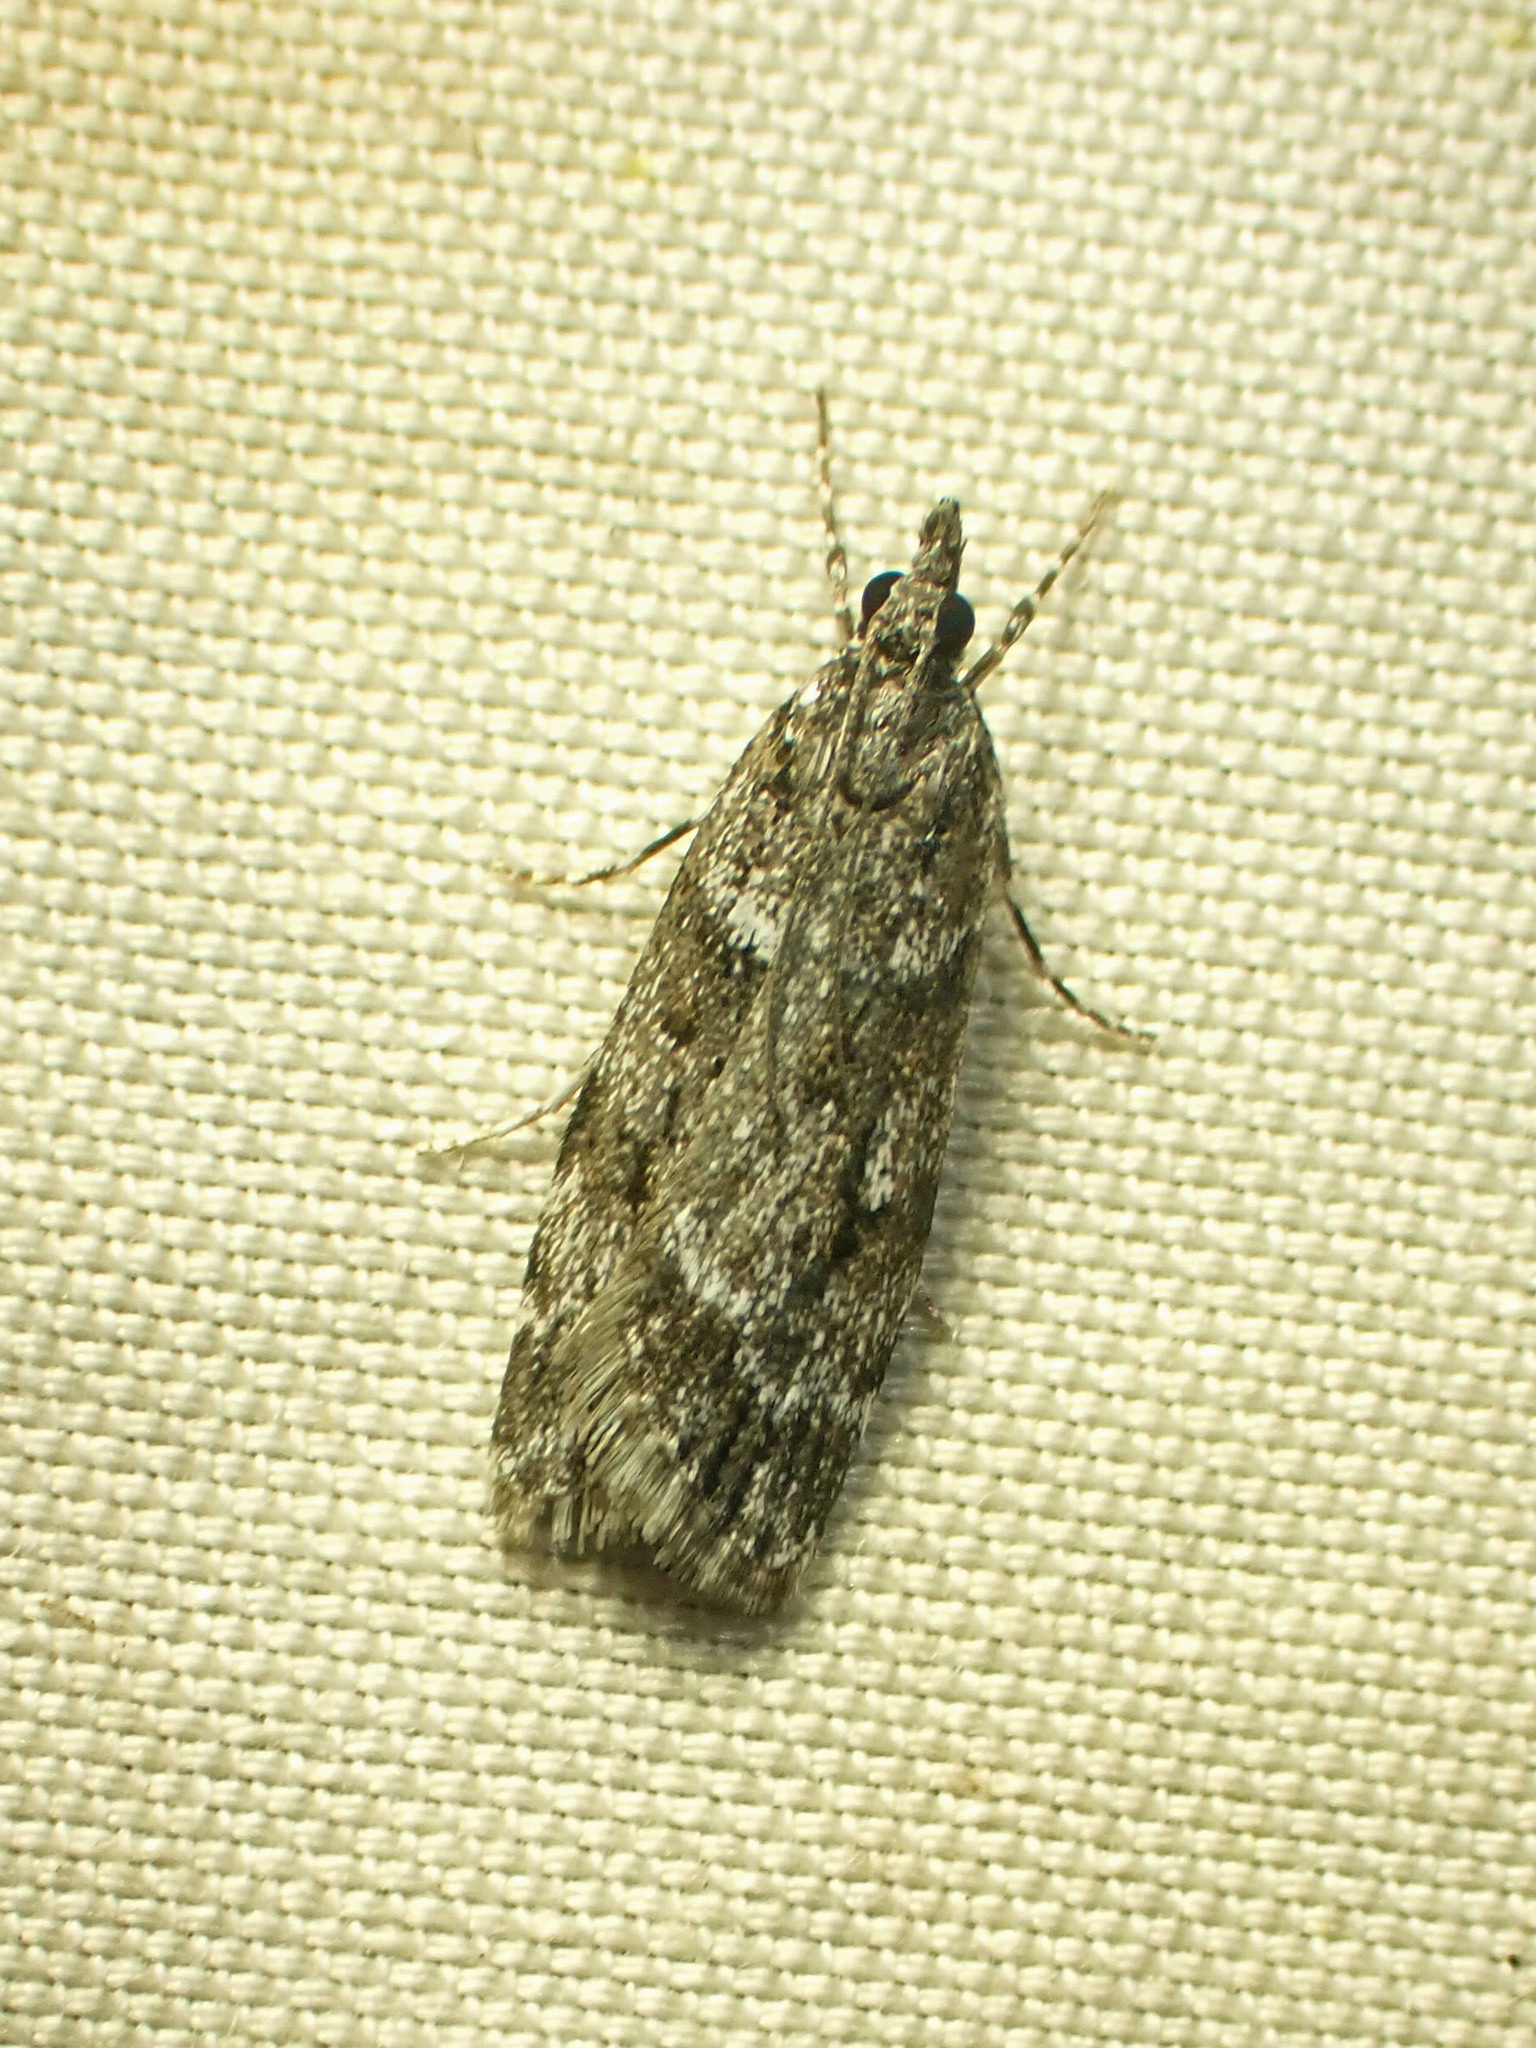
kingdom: Animalia
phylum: Arthropoda
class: Insecta
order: Lepidoptera
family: Crambidae
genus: Scoparia
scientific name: Scoparia biplagialis
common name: Double-striped scoparia moth
